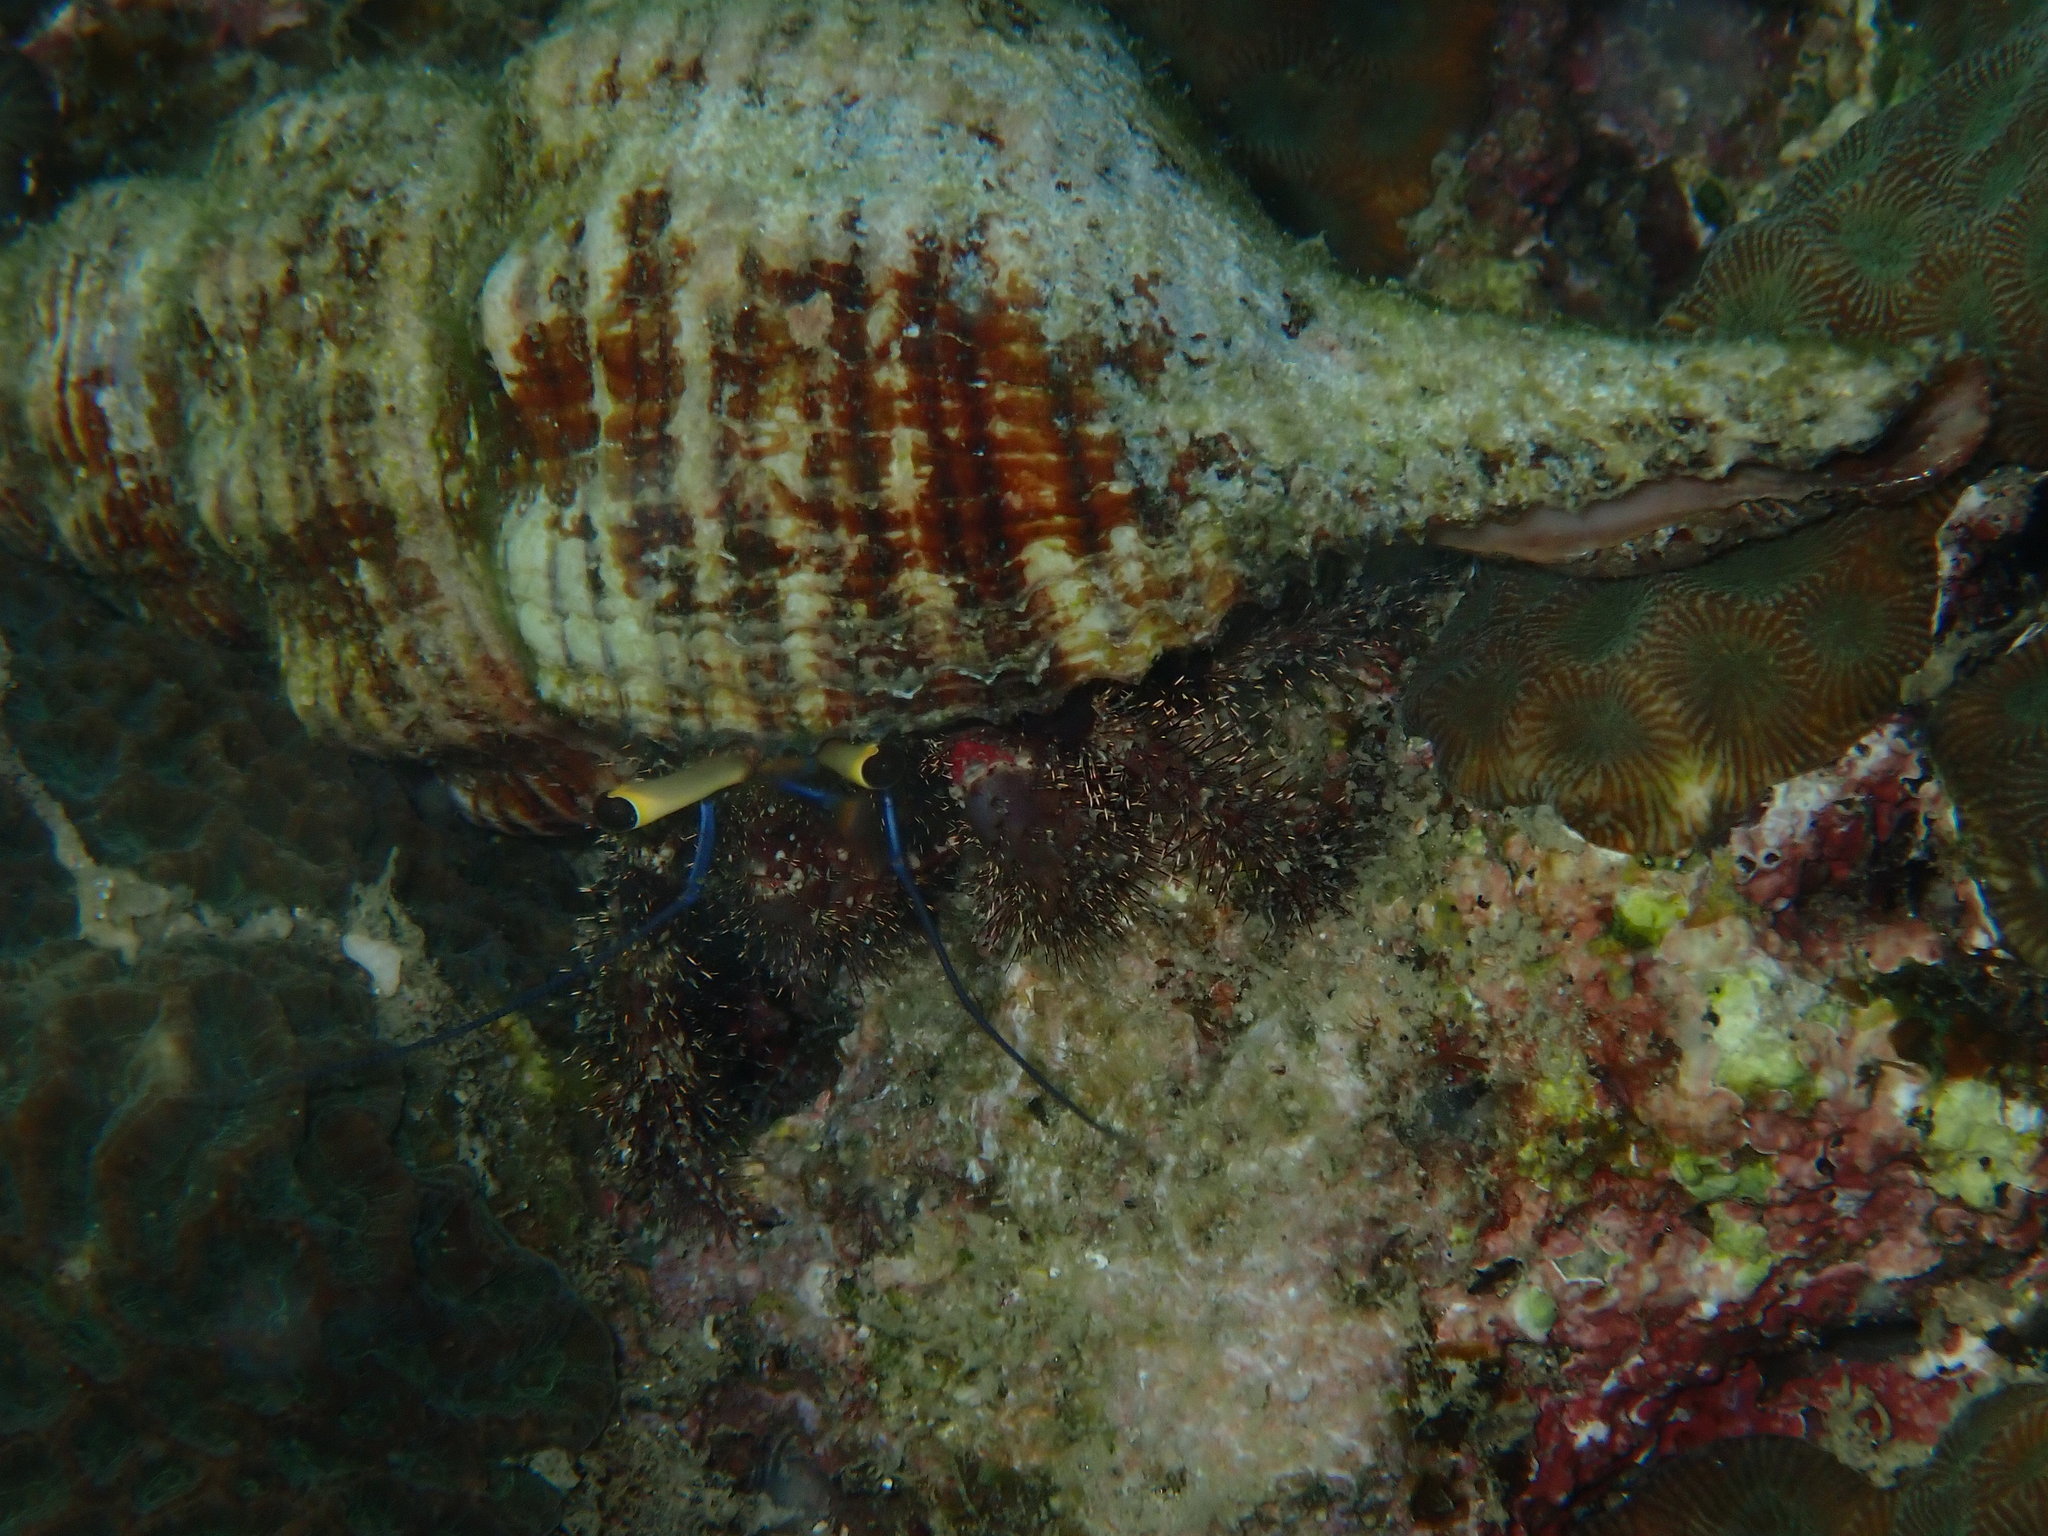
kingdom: Animalia
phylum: Arthropoda
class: Malacostraca
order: Decapoda
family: Diogenidae
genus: Dardanus
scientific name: Dardanus lagopodes
